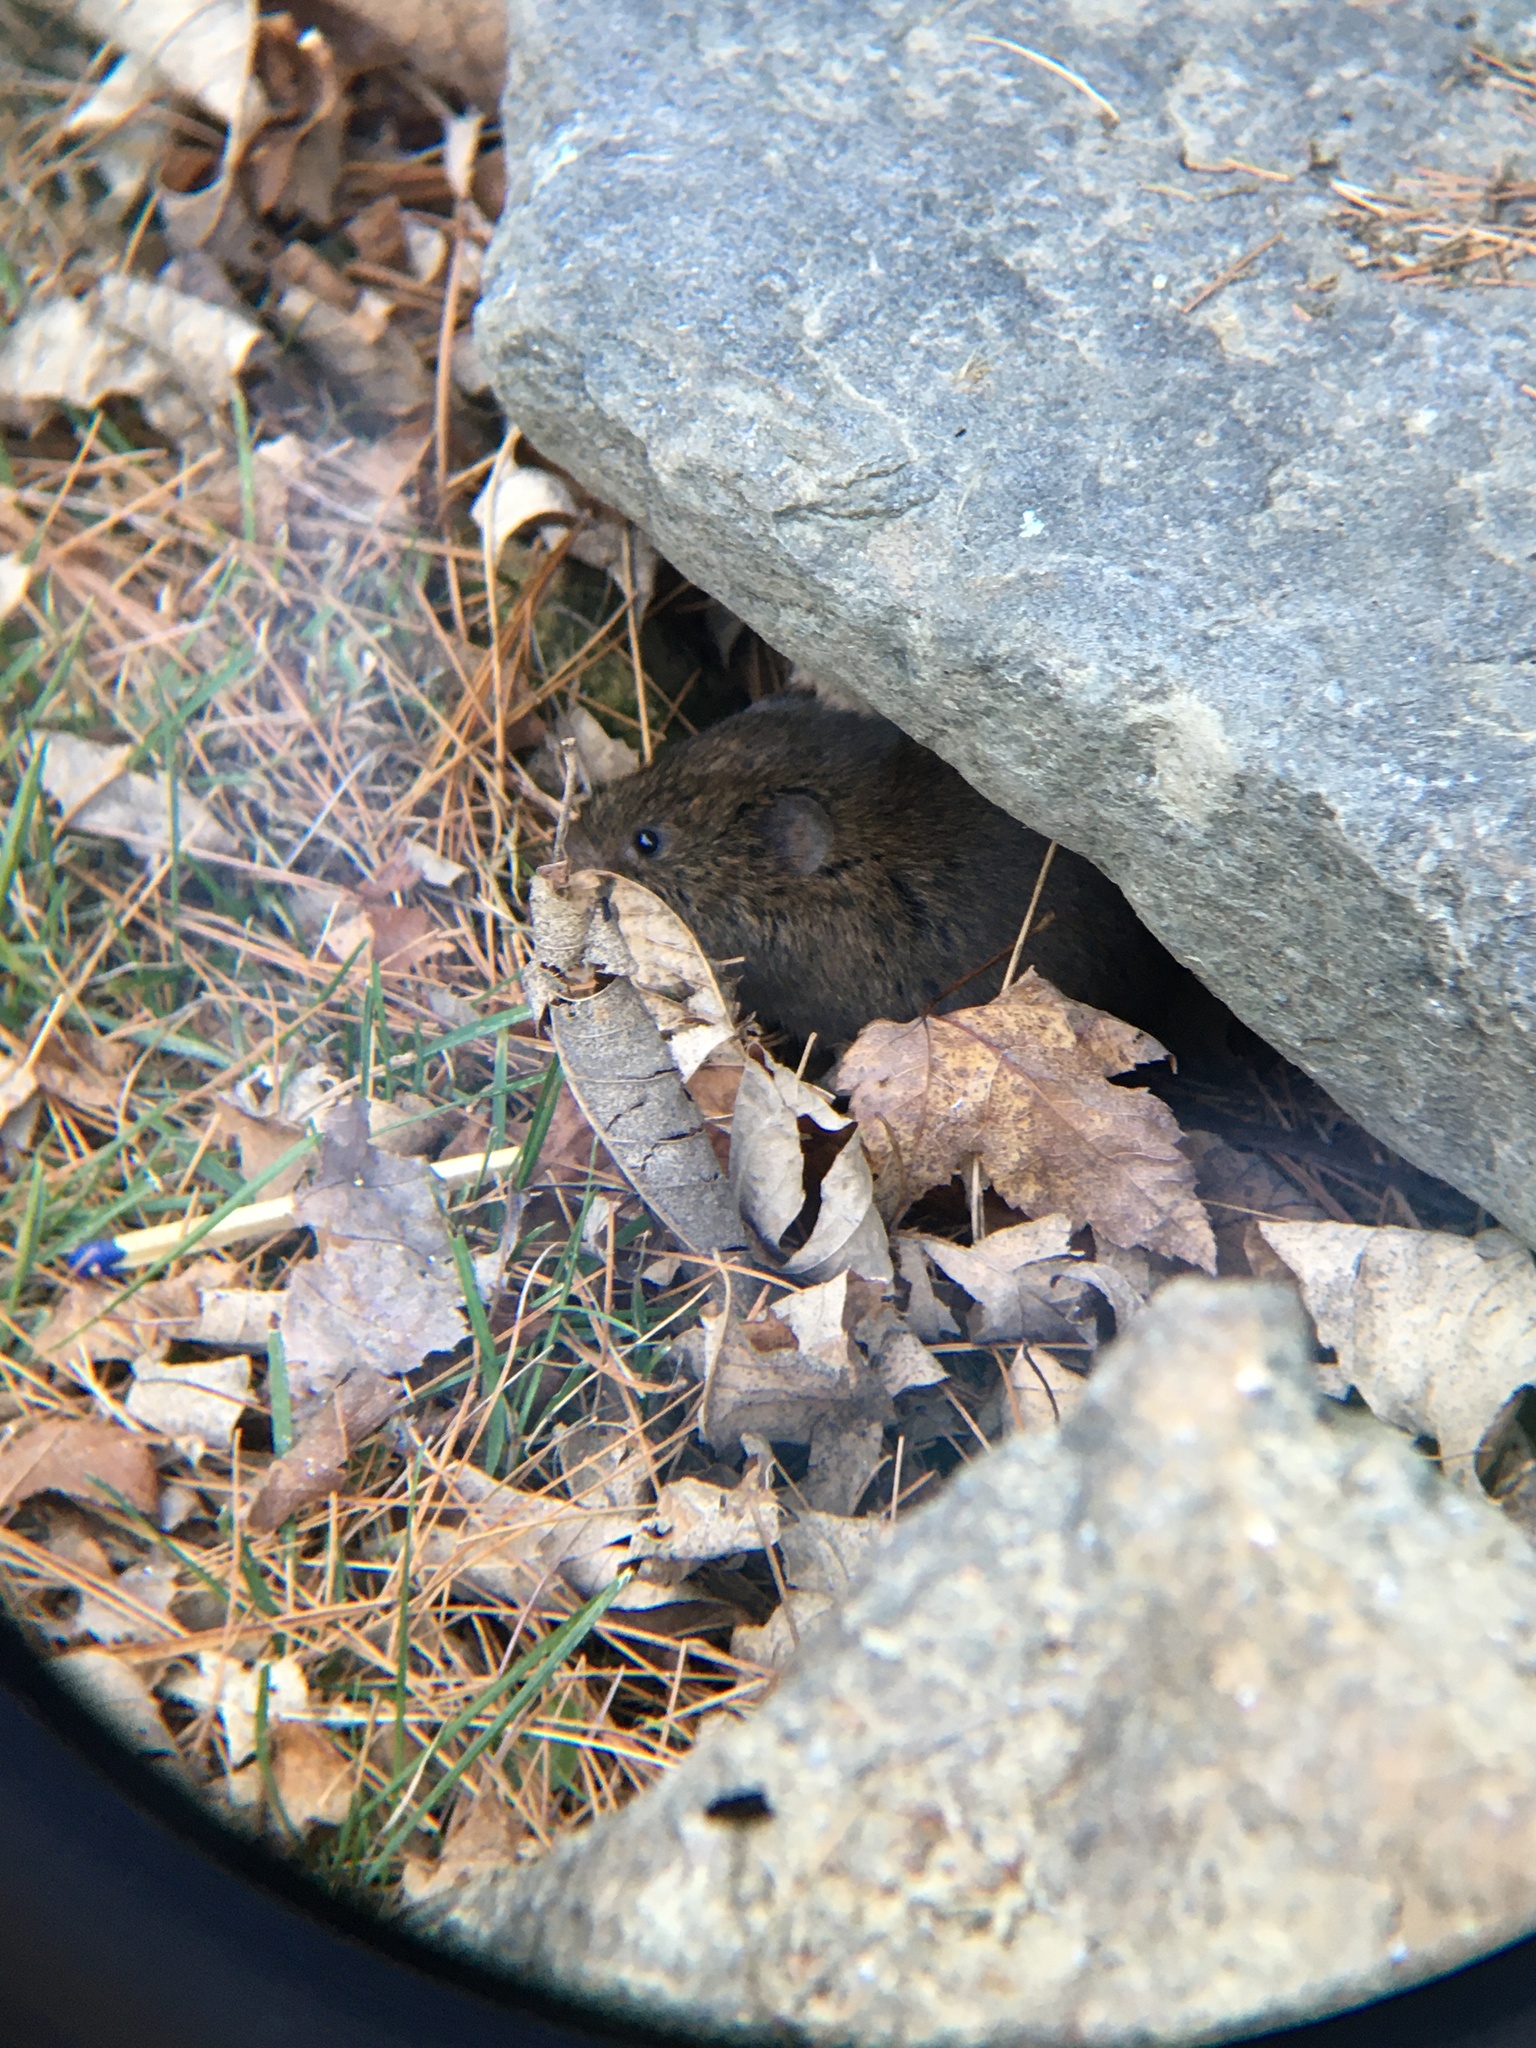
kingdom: Animalia
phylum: Chordata
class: Mammalia
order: Rodentia
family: Cricetidae
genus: Microtus
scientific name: Microtus pennsylvanicus
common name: Meadow vole
